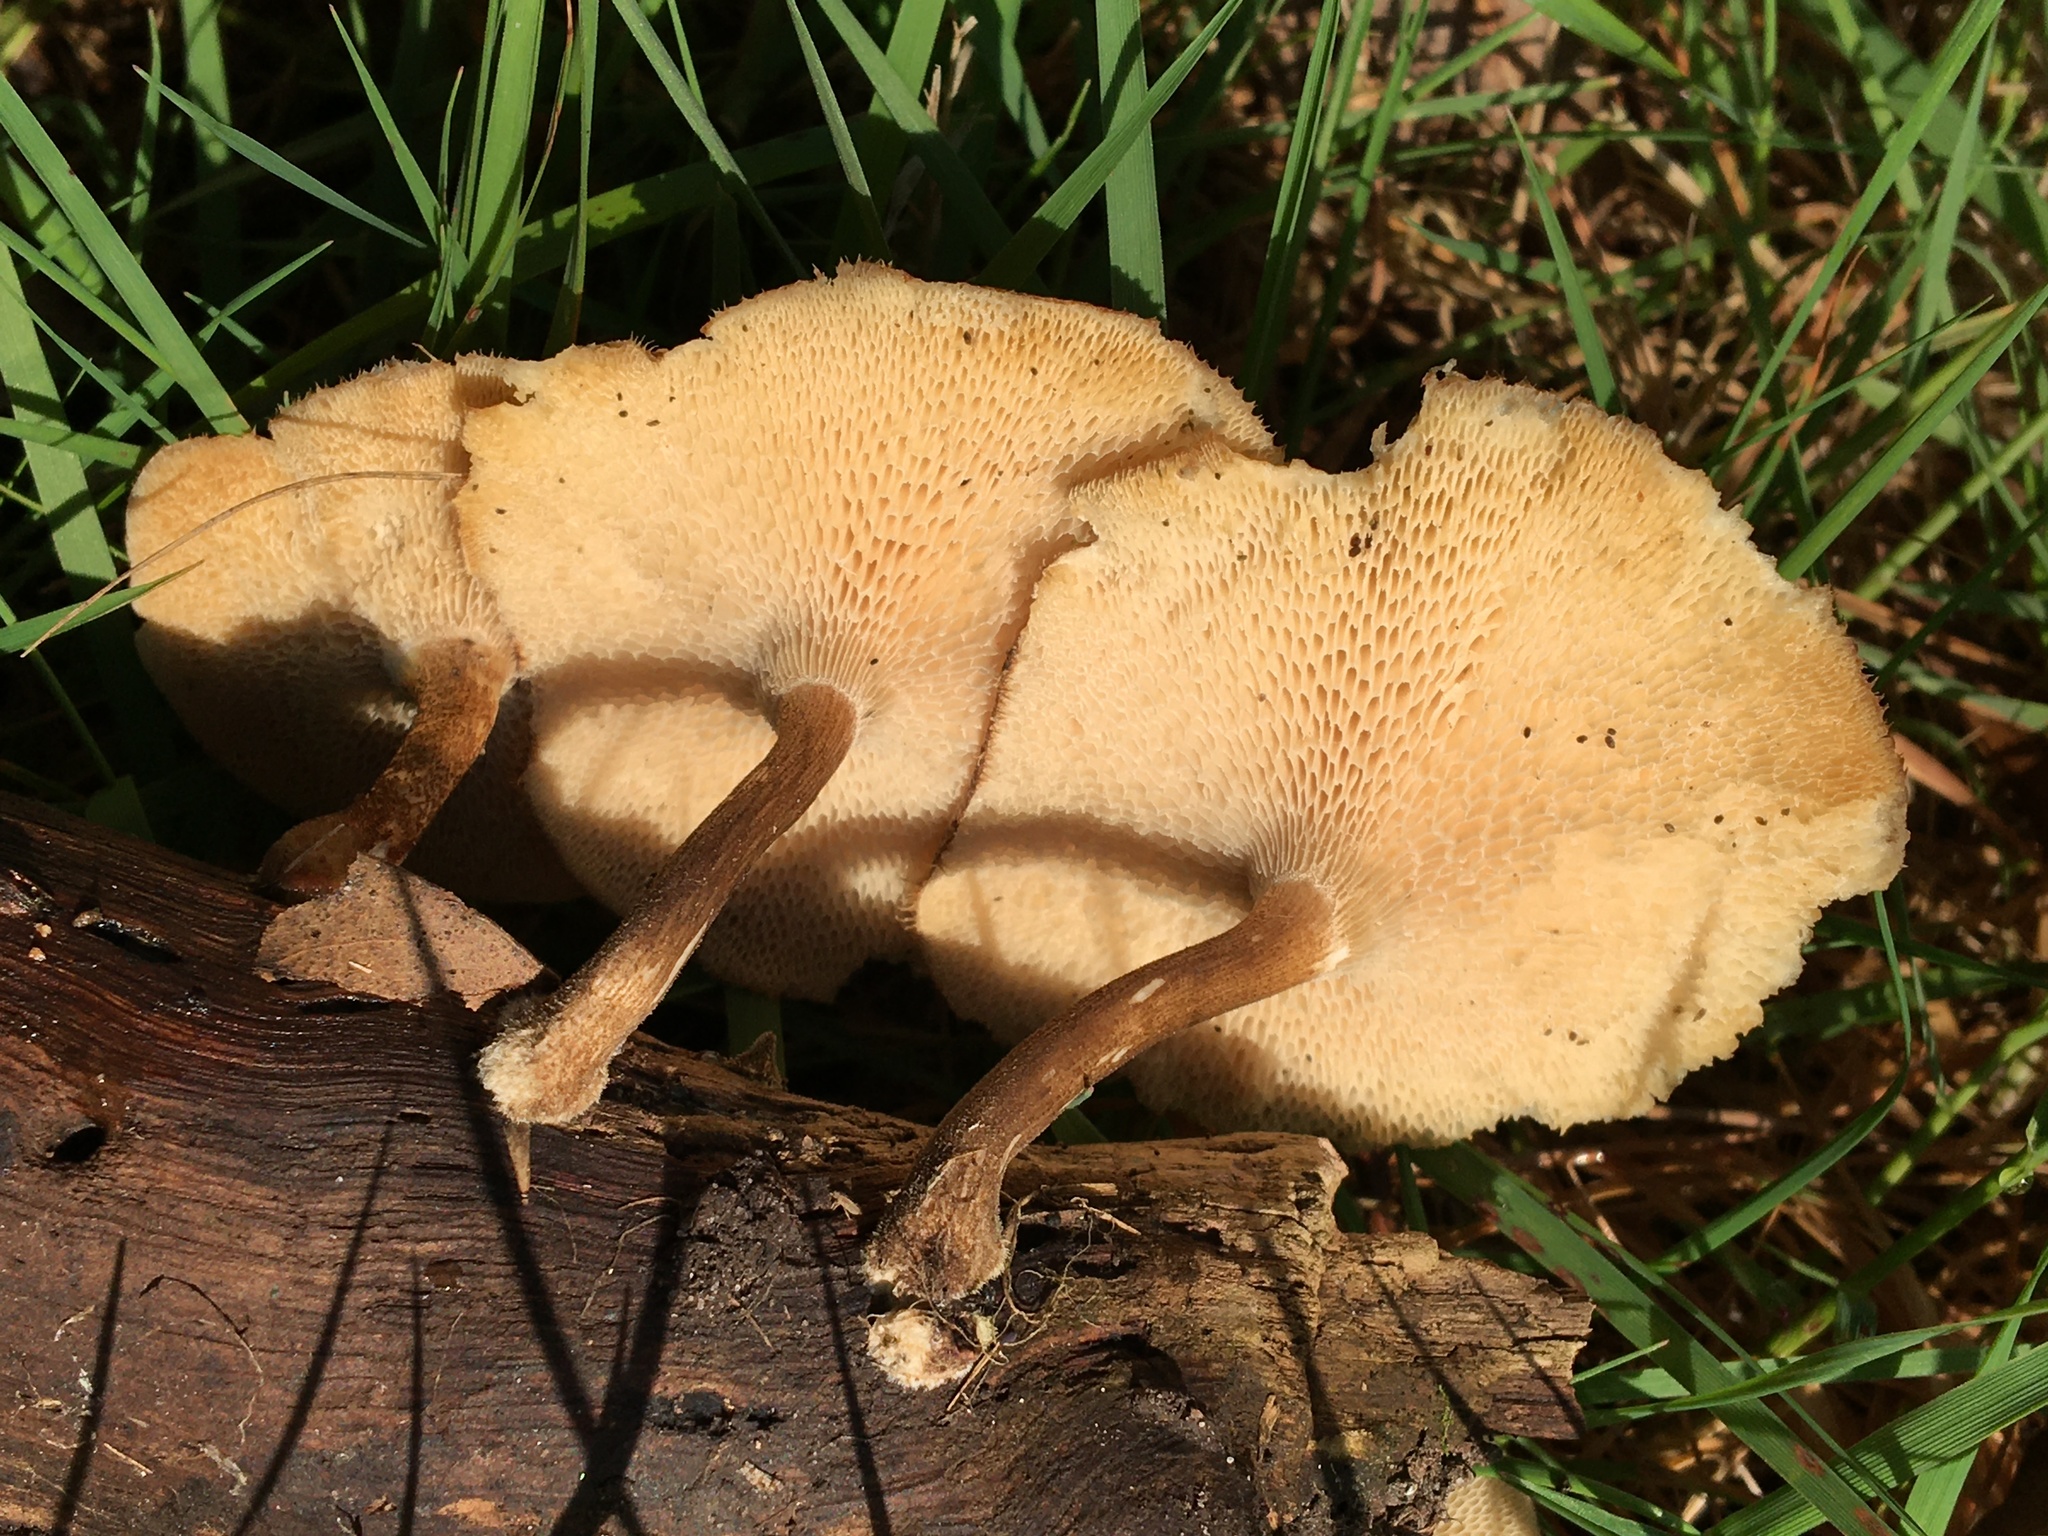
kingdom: Fungi
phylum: Basidiomycota
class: Agaricomycetes
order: Polyporales
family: Polyporaceae
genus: Lentinus
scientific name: Lentinus arcularius
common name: Spring polypore
